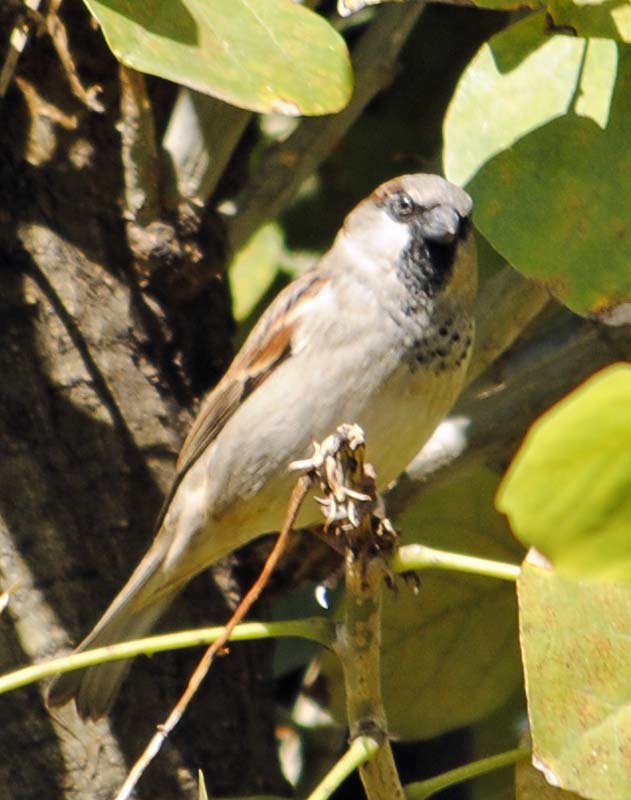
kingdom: Animalia
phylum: Chordata
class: Aves
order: Passeriformes
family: Passeridae
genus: Passer
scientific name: Passer domesticus
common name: House sparrow
